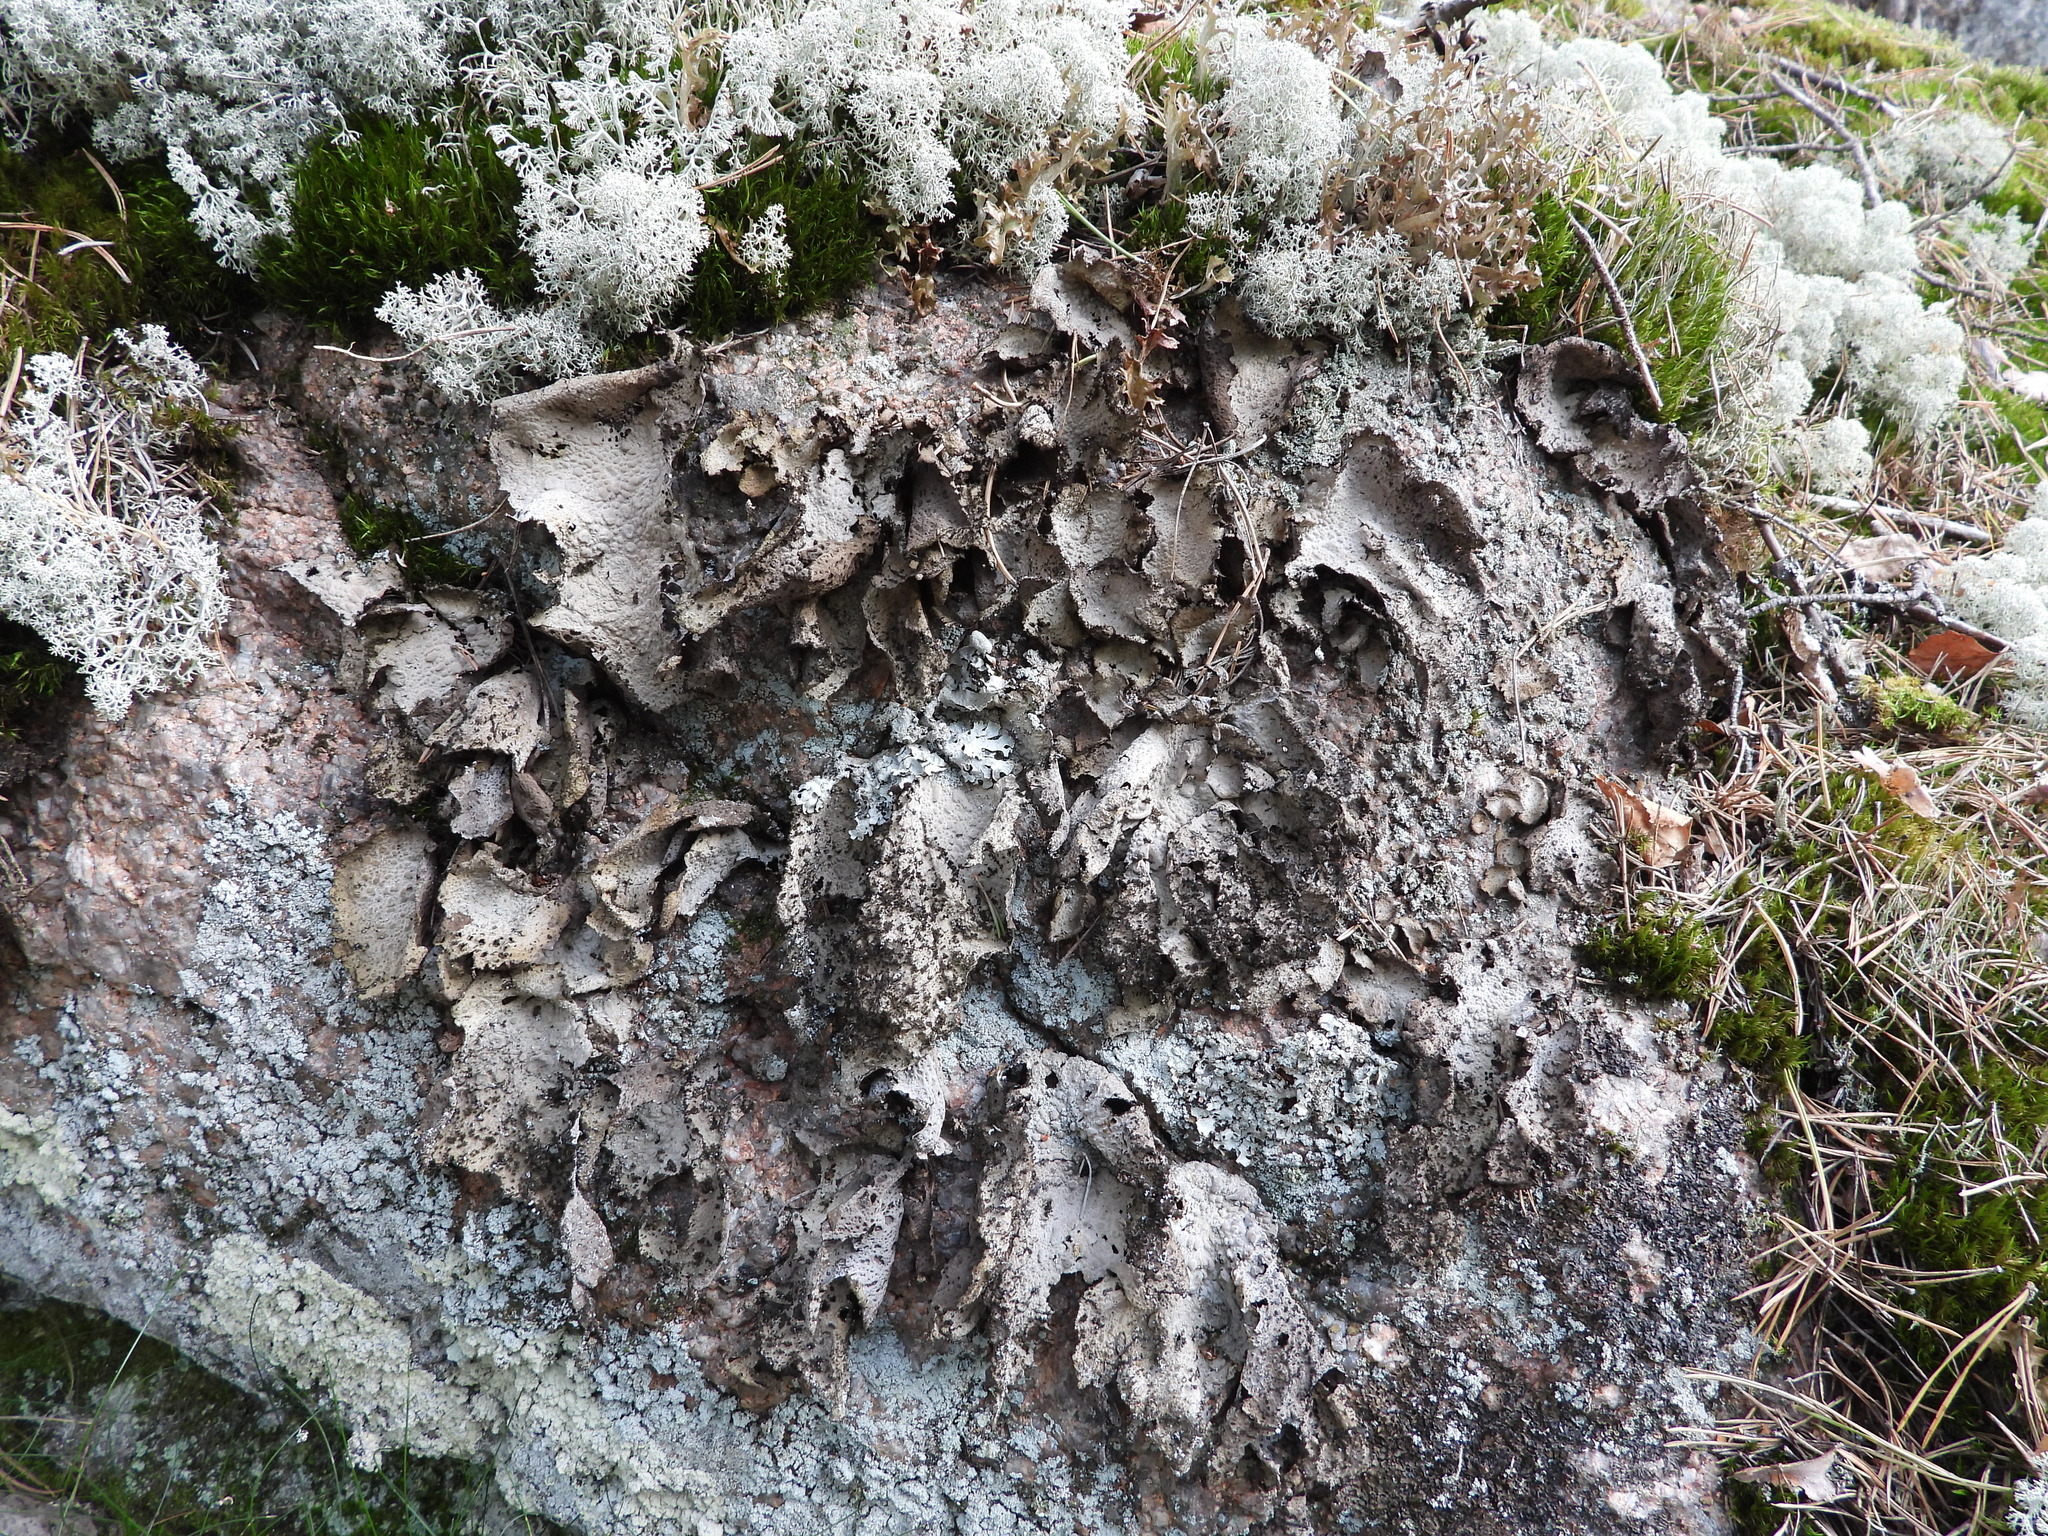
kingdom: Fungi
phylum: Ascomycota
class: Lecanoromycetes
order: Umbilicariales
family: Umbilicariaceae
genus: Lasallia
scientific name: Lasallia pustulata
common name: Blistered toadskin lichen
